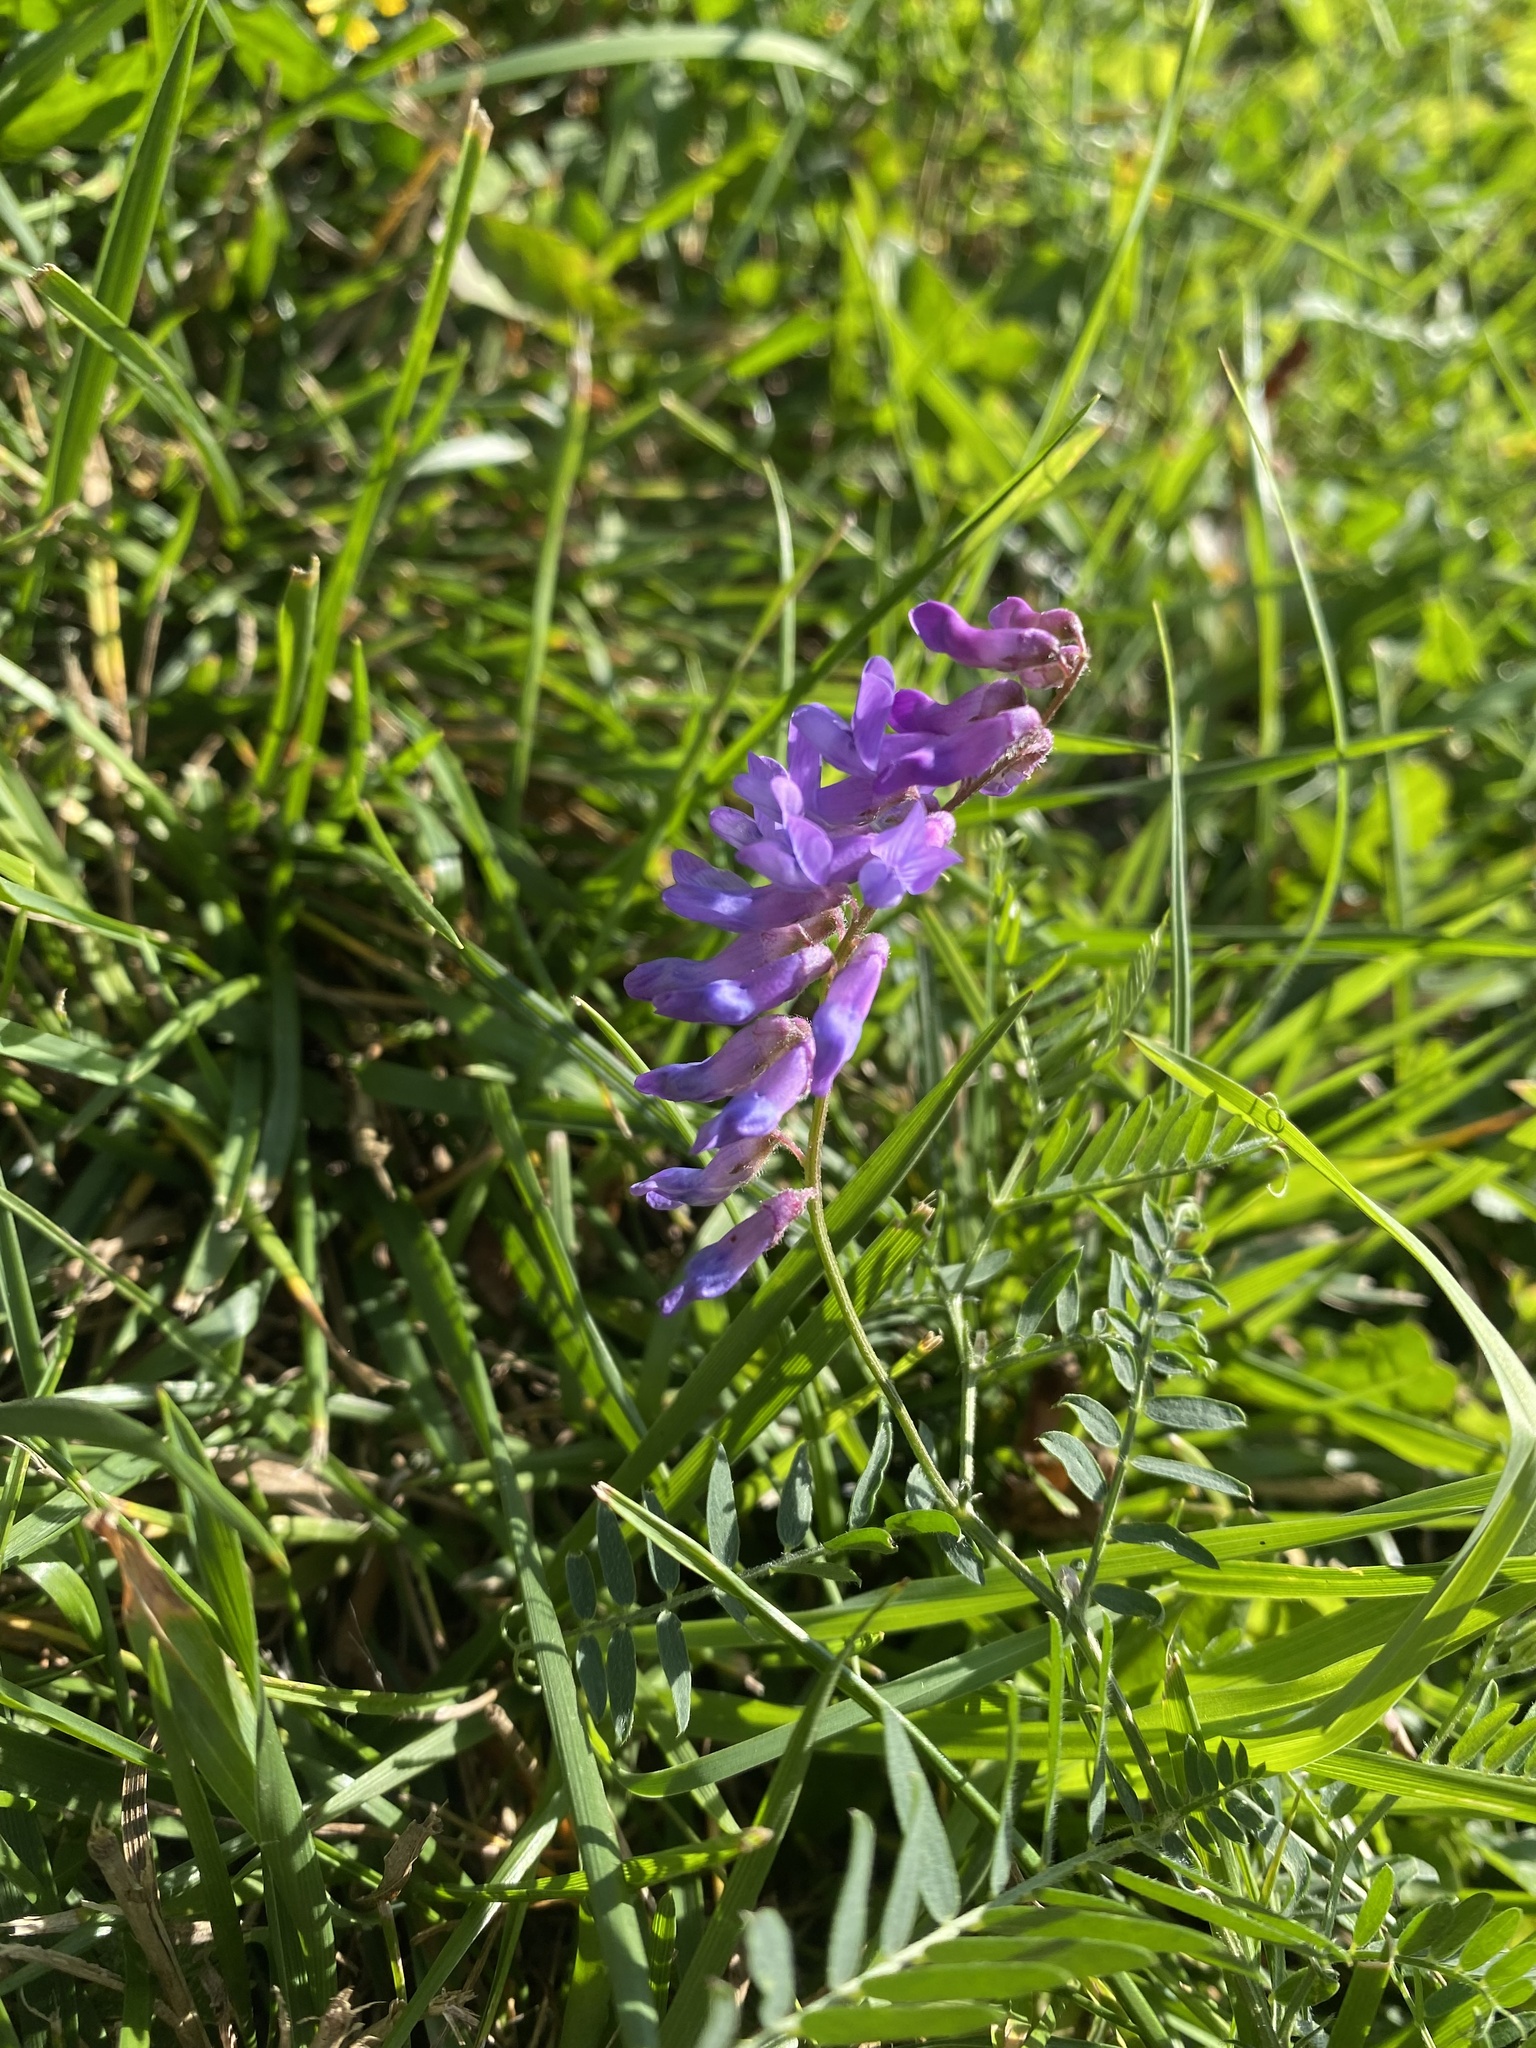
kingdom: Plantae
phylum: Tracheophyta
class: Magnoliopsida
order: Fabales
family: Fabaceae
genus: Vicia
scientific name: Vicia cracca
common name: Bird vetch
